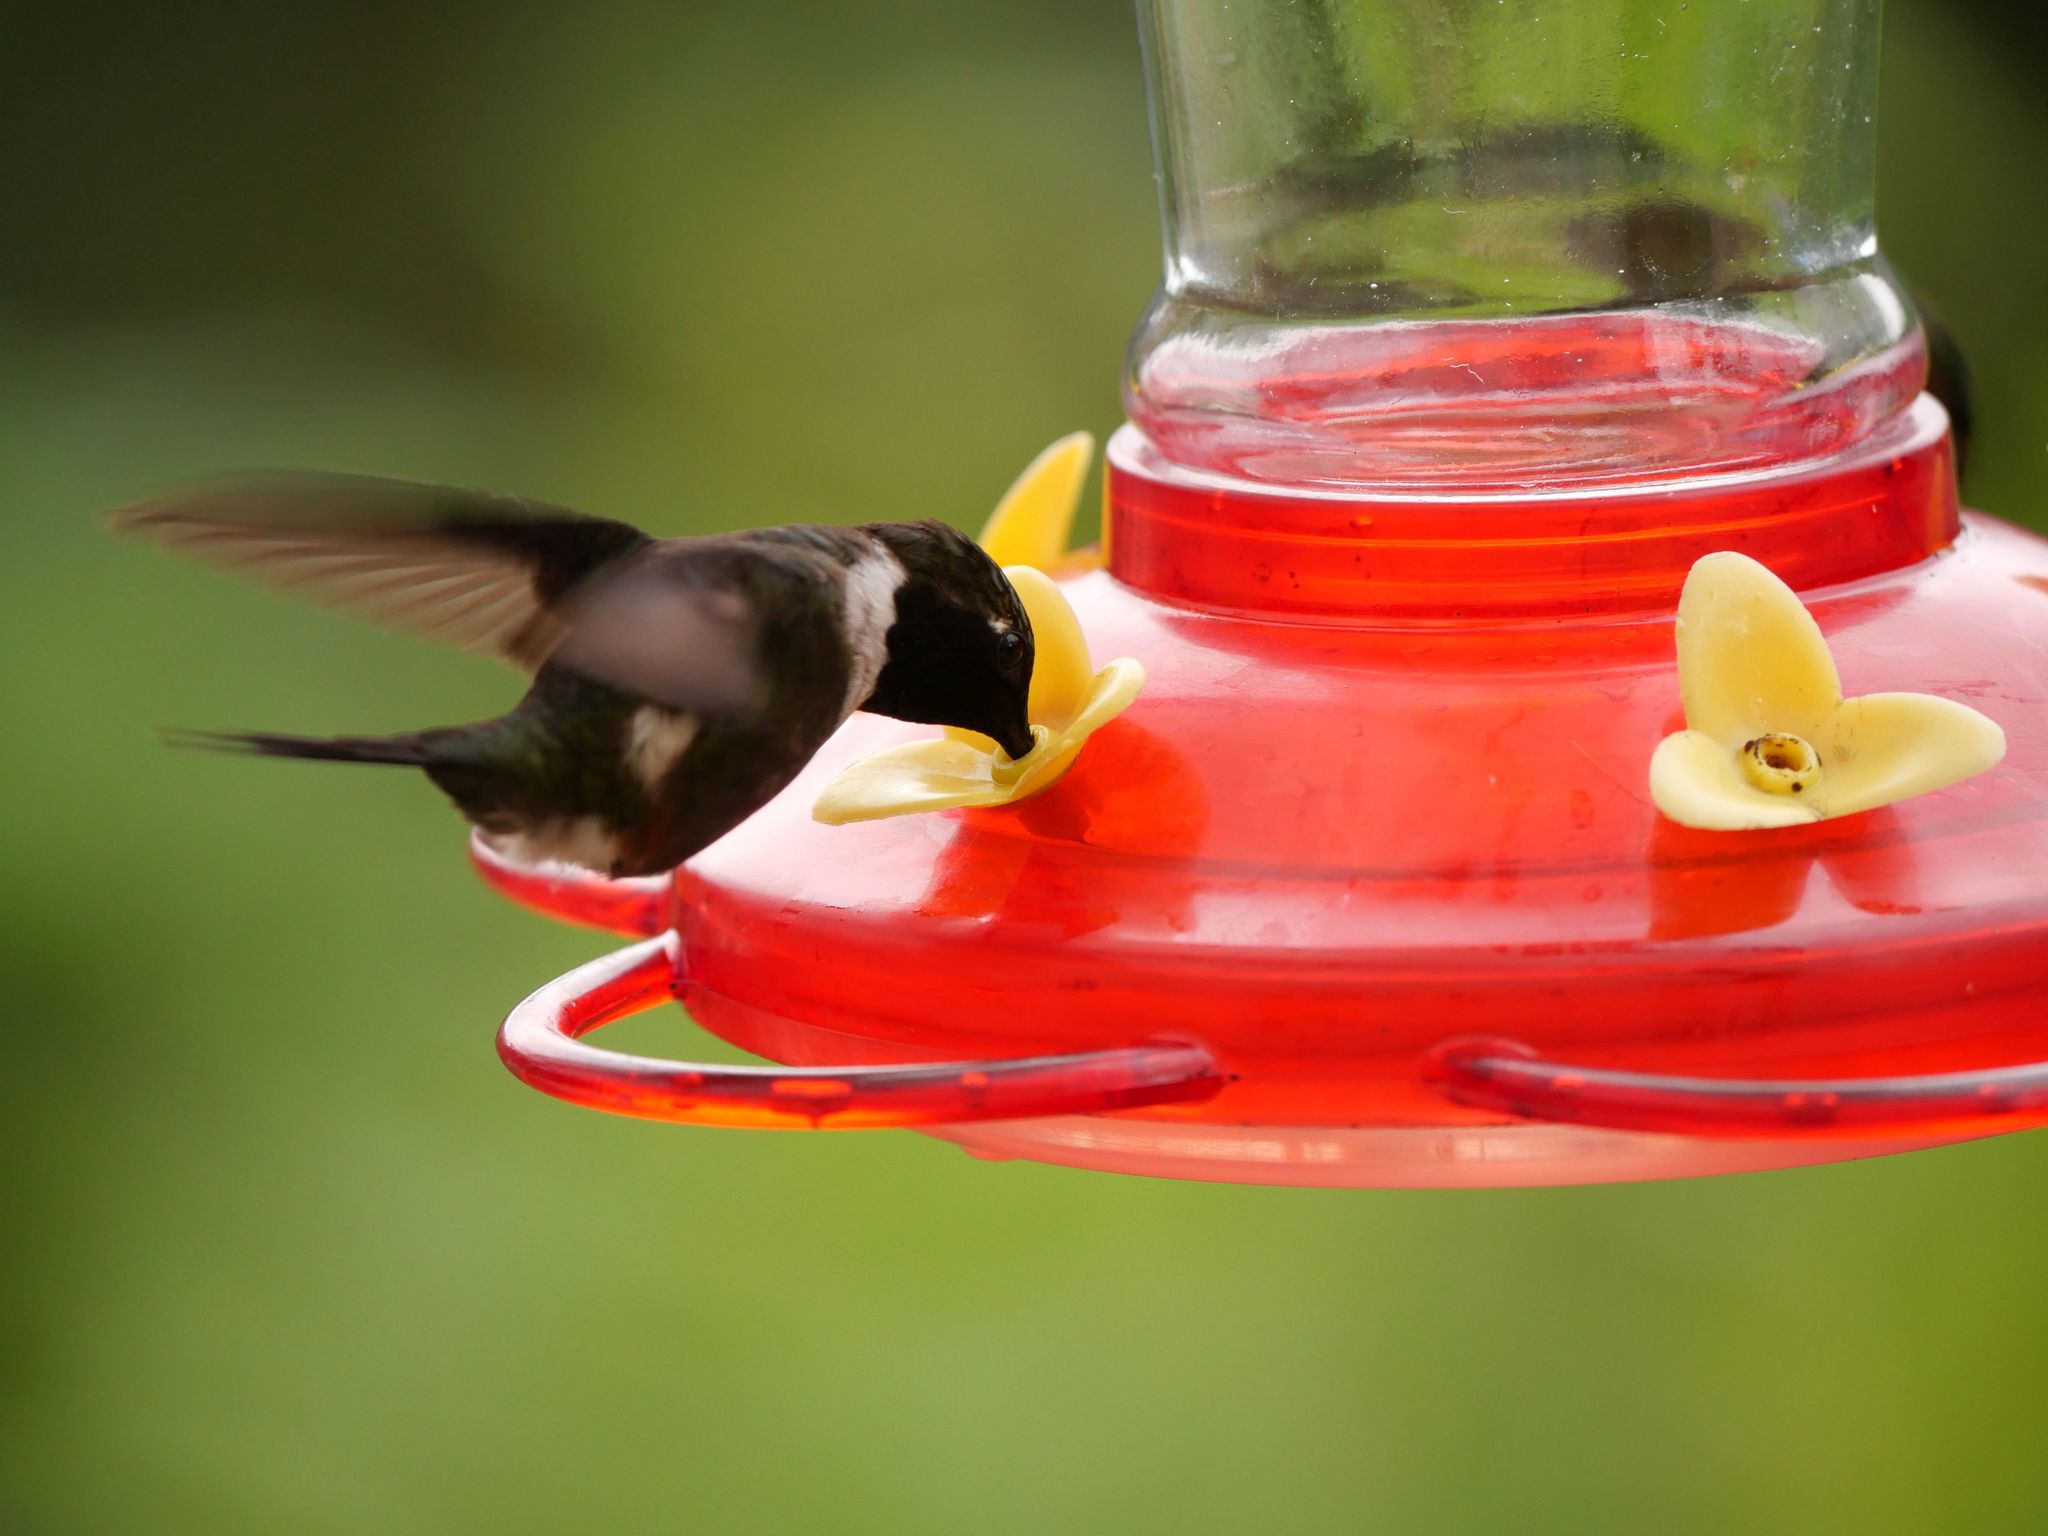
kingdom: Animalia
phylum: Chordata
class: Aves
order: Apodiformes
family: Trochilidae
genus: Calliphlox
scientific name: Calliphlox mitchellii
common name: Purple-throated woodstar
